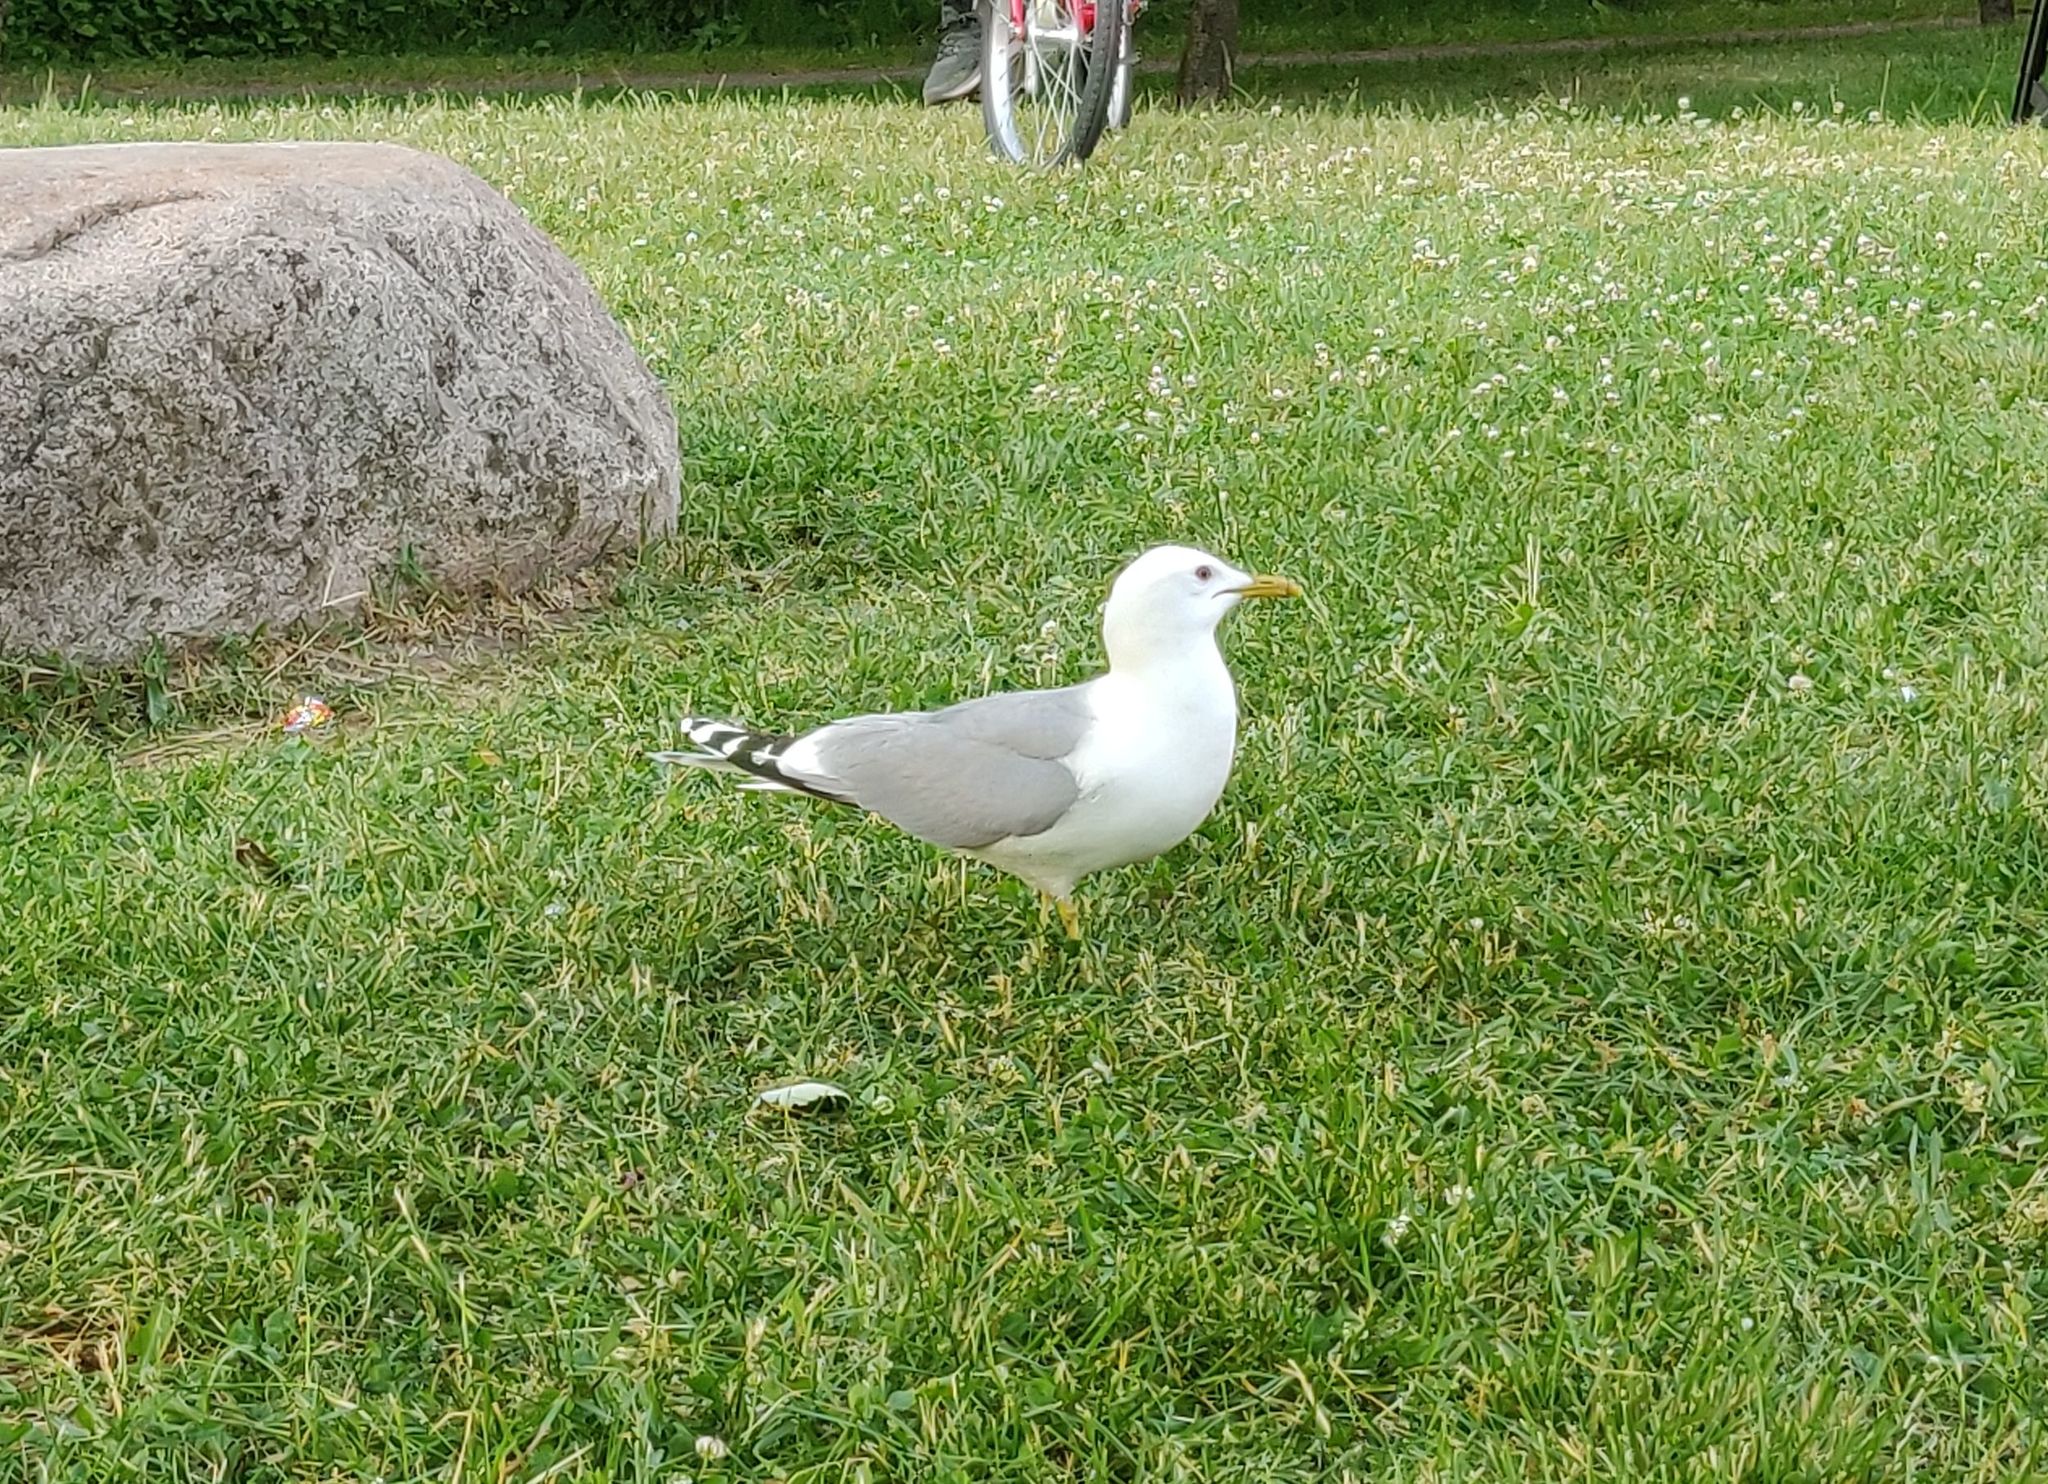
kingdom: Animalia
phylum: Chordata
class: Aves
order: Charadriiformes
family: Laridae
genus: Larus
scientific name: Larus canus
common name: Mew gull
